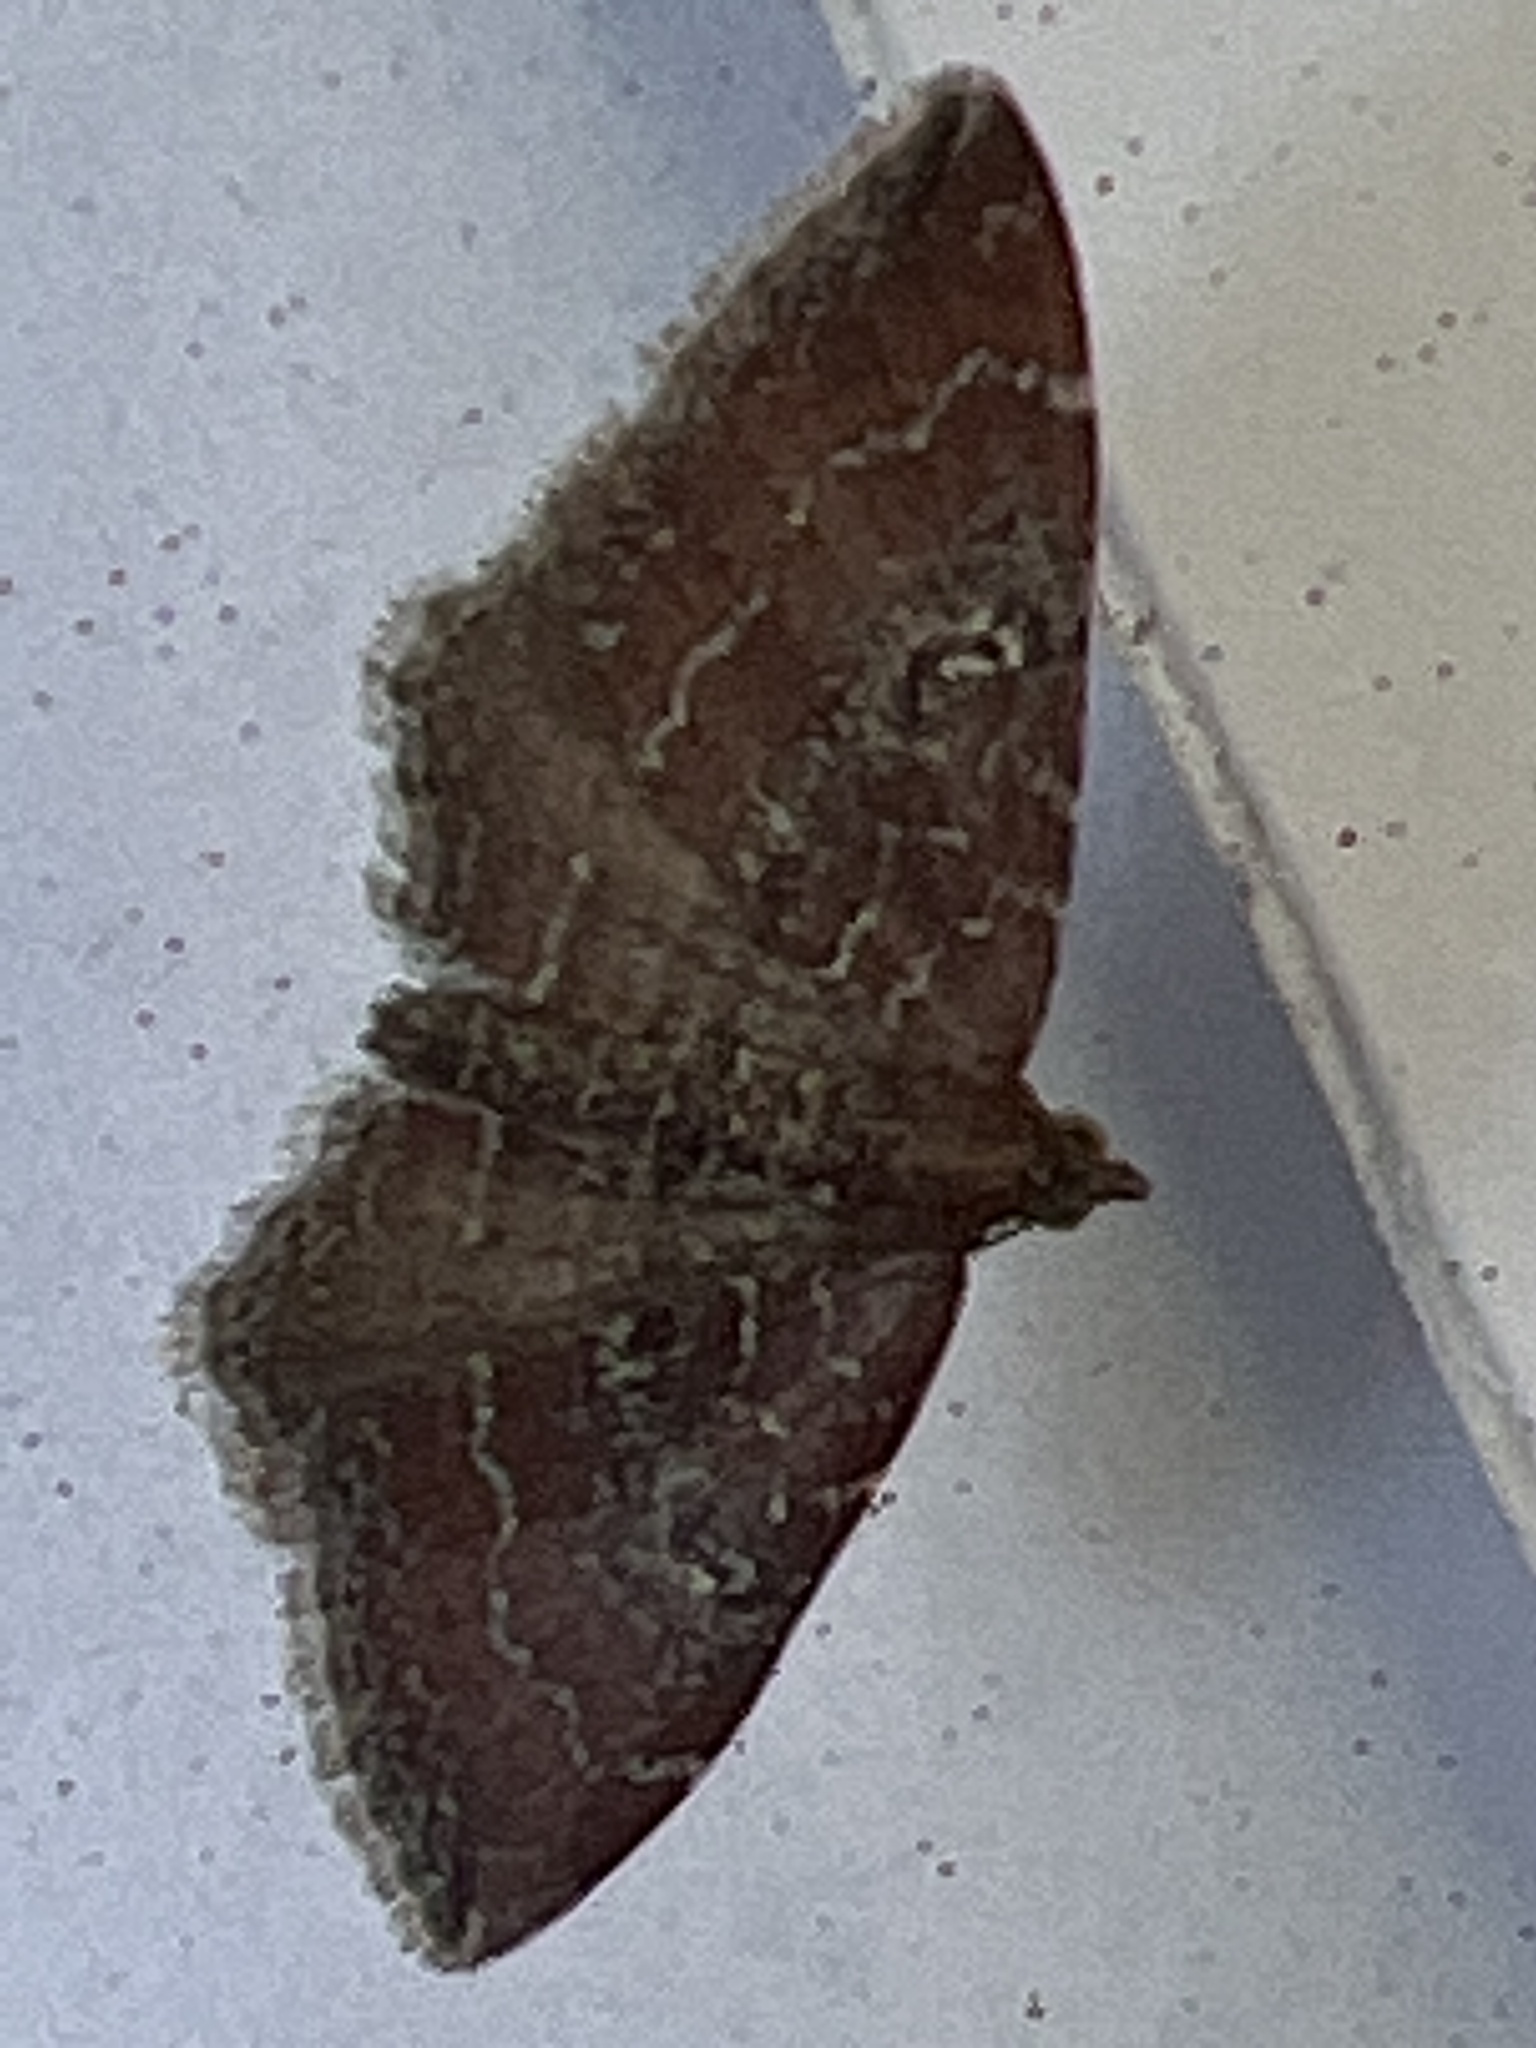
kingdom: Animalia
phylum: Arthropoda
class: Insecta
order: Lepidoptera
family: Geometridae
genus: Orthonama
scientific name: Orthonama obstipata
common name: The gem
